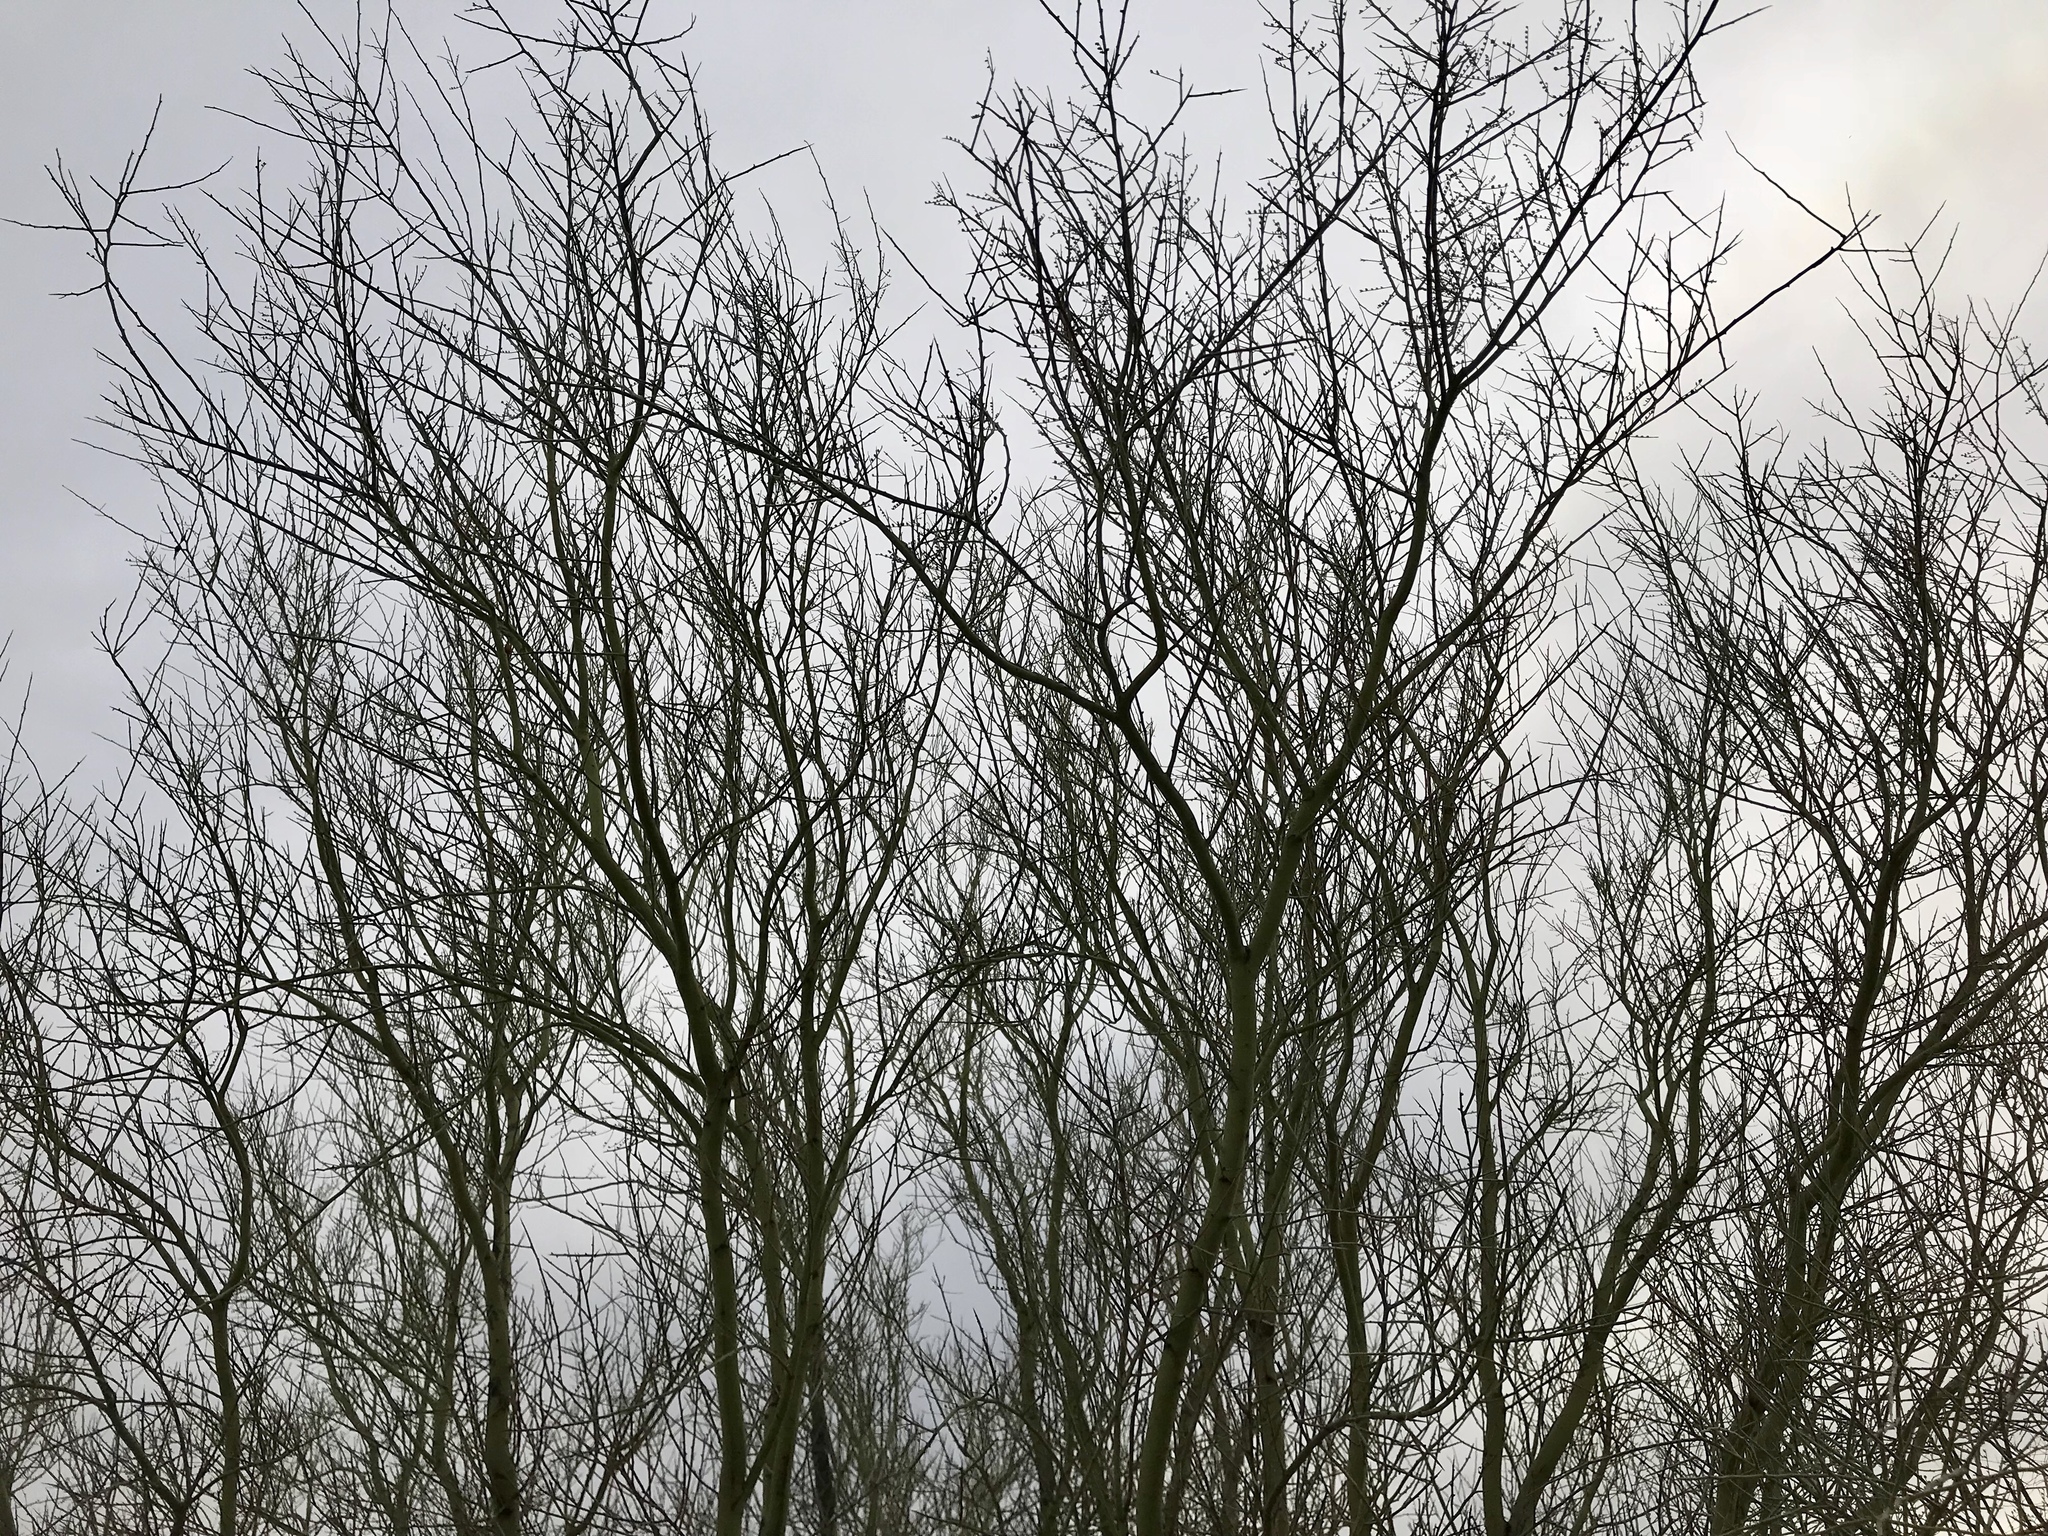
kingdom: Plantae
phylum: Tracheophyta
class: Magnoliopsida
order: Fabales
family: Fabaceae
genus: Parkinsonia
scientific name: Parkinsonia microphylla
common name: Yellow paloverde
